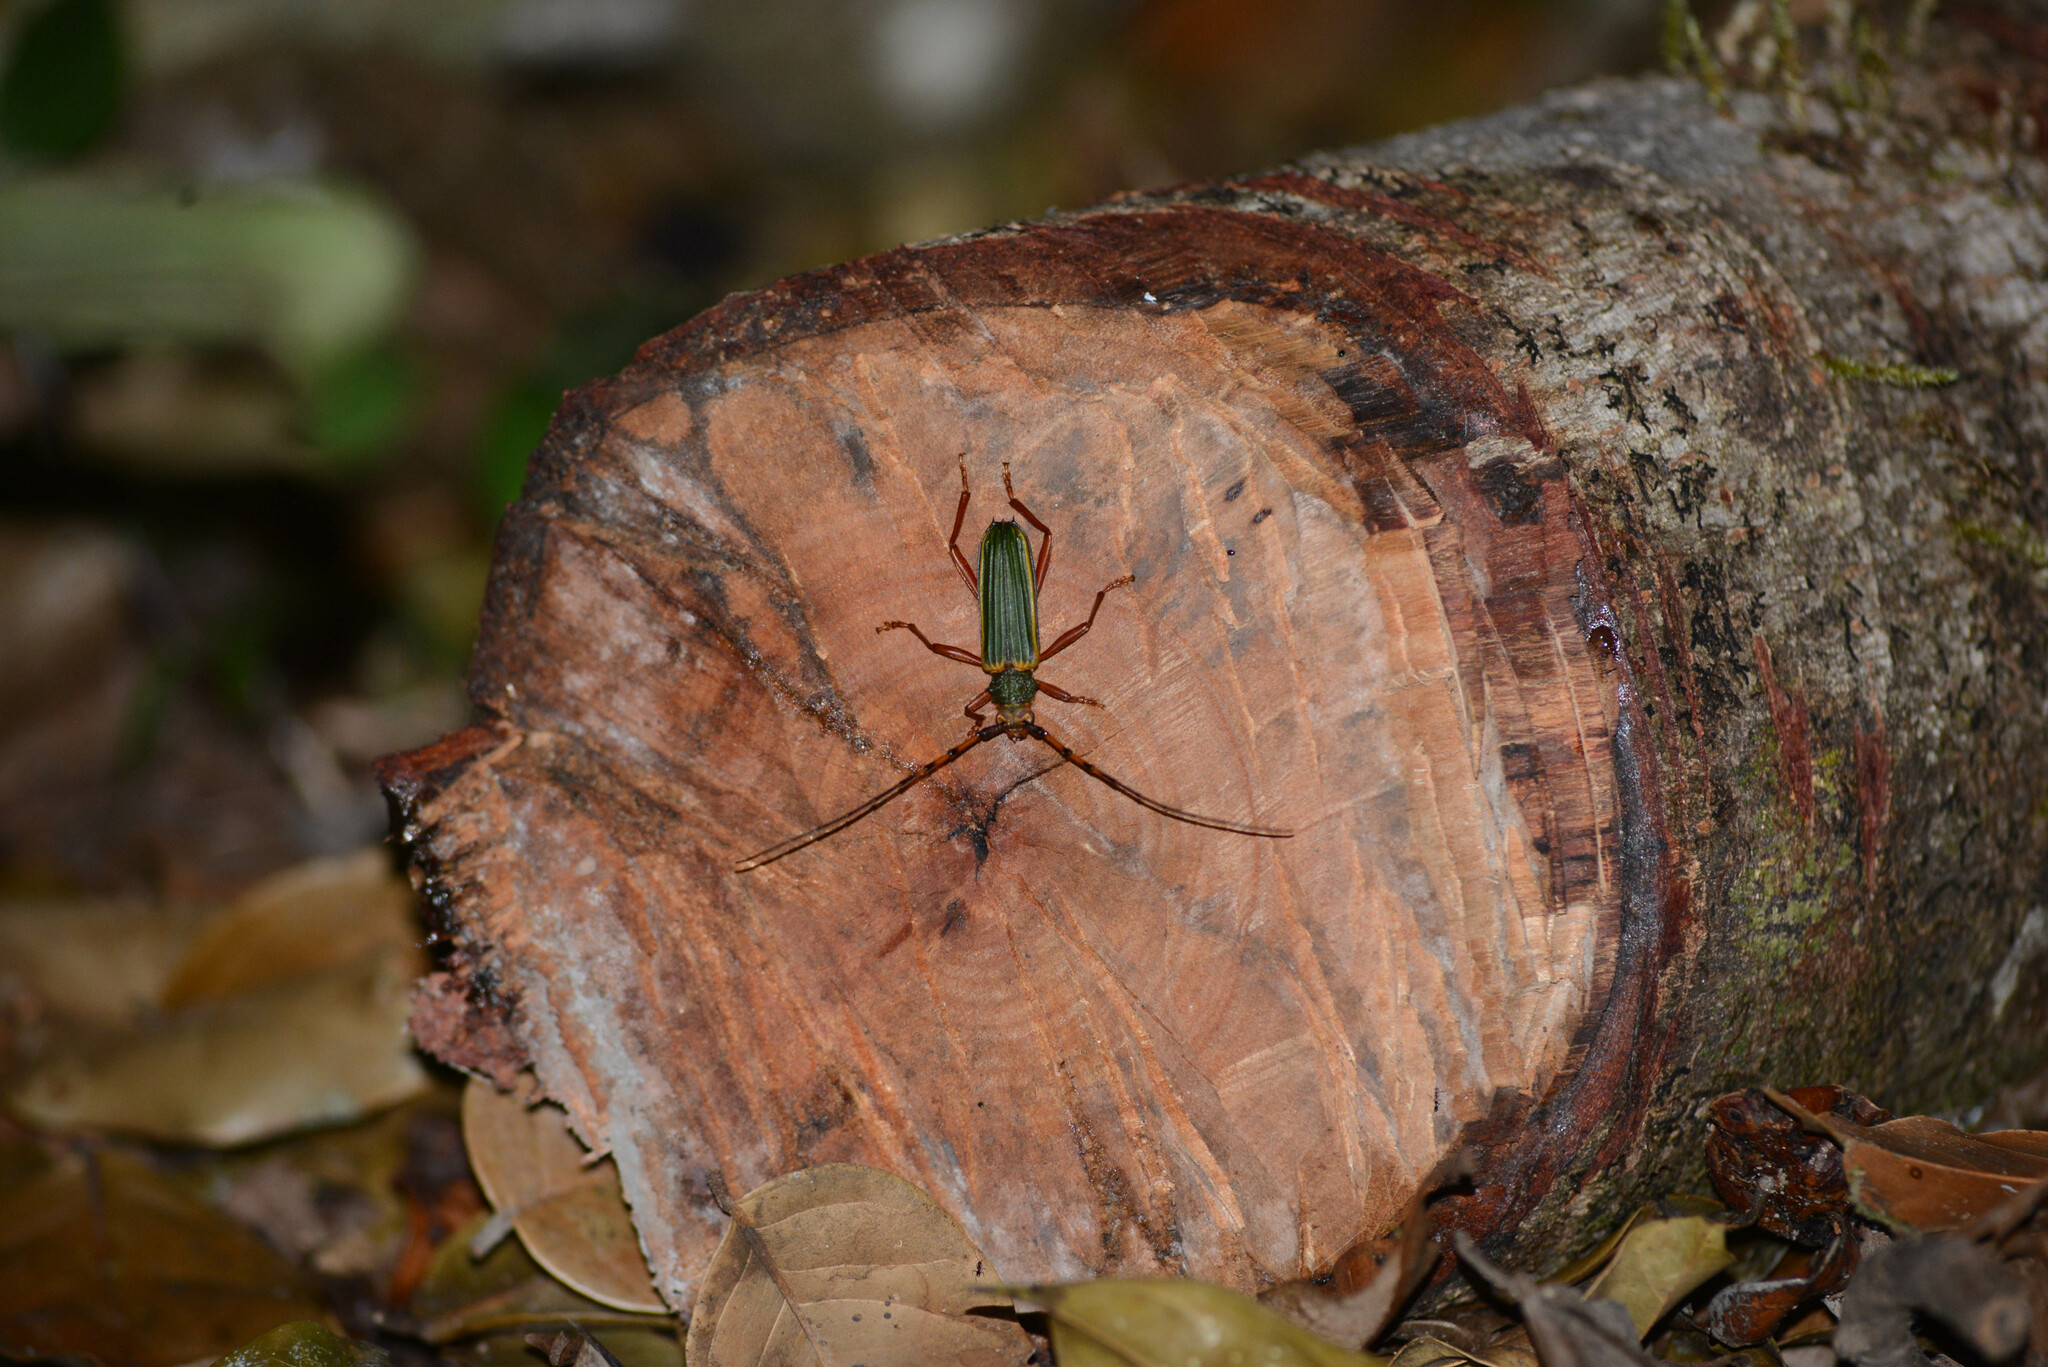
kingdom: Animalia
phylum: Arthropoda
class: Insecta
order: Coleoptera
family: Cerambycidae
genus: Chlorida
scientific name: Chlorida costata
